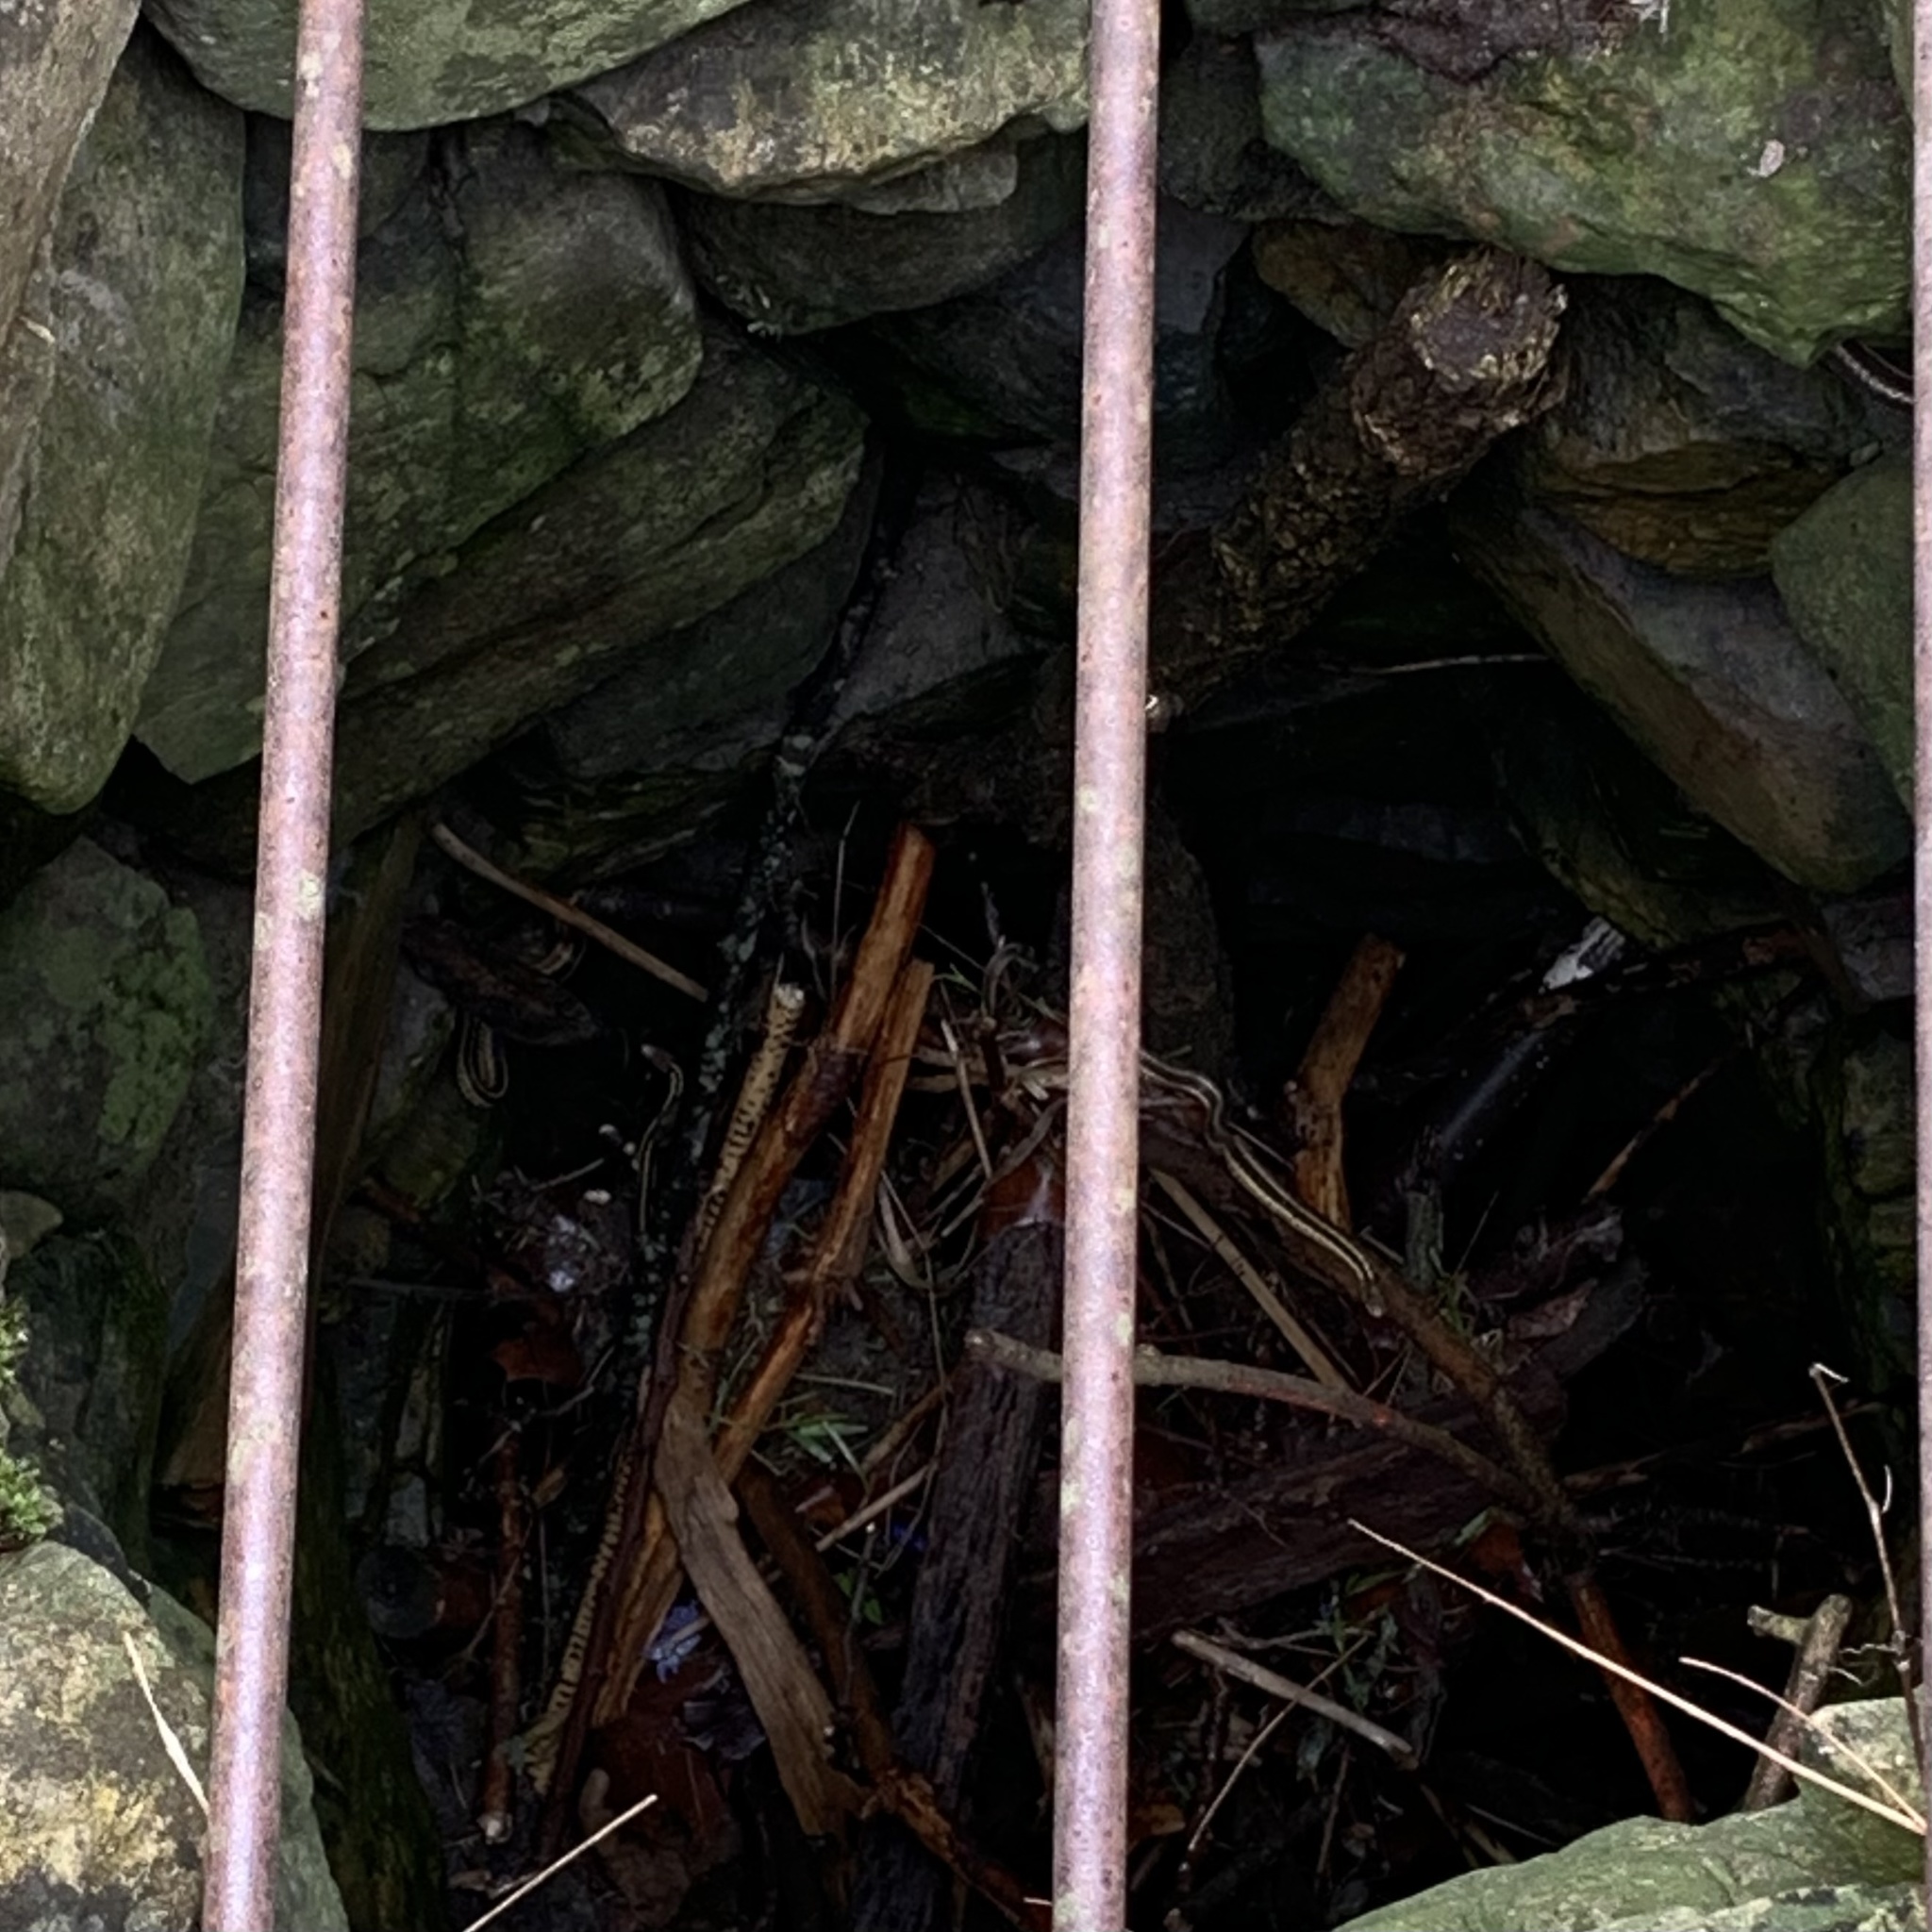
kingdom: Animalia
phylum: Chordata
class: Squamata
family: Colubridae
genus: Thamnophis
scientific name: Thamnophis sirtalis
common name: Common garter snake
